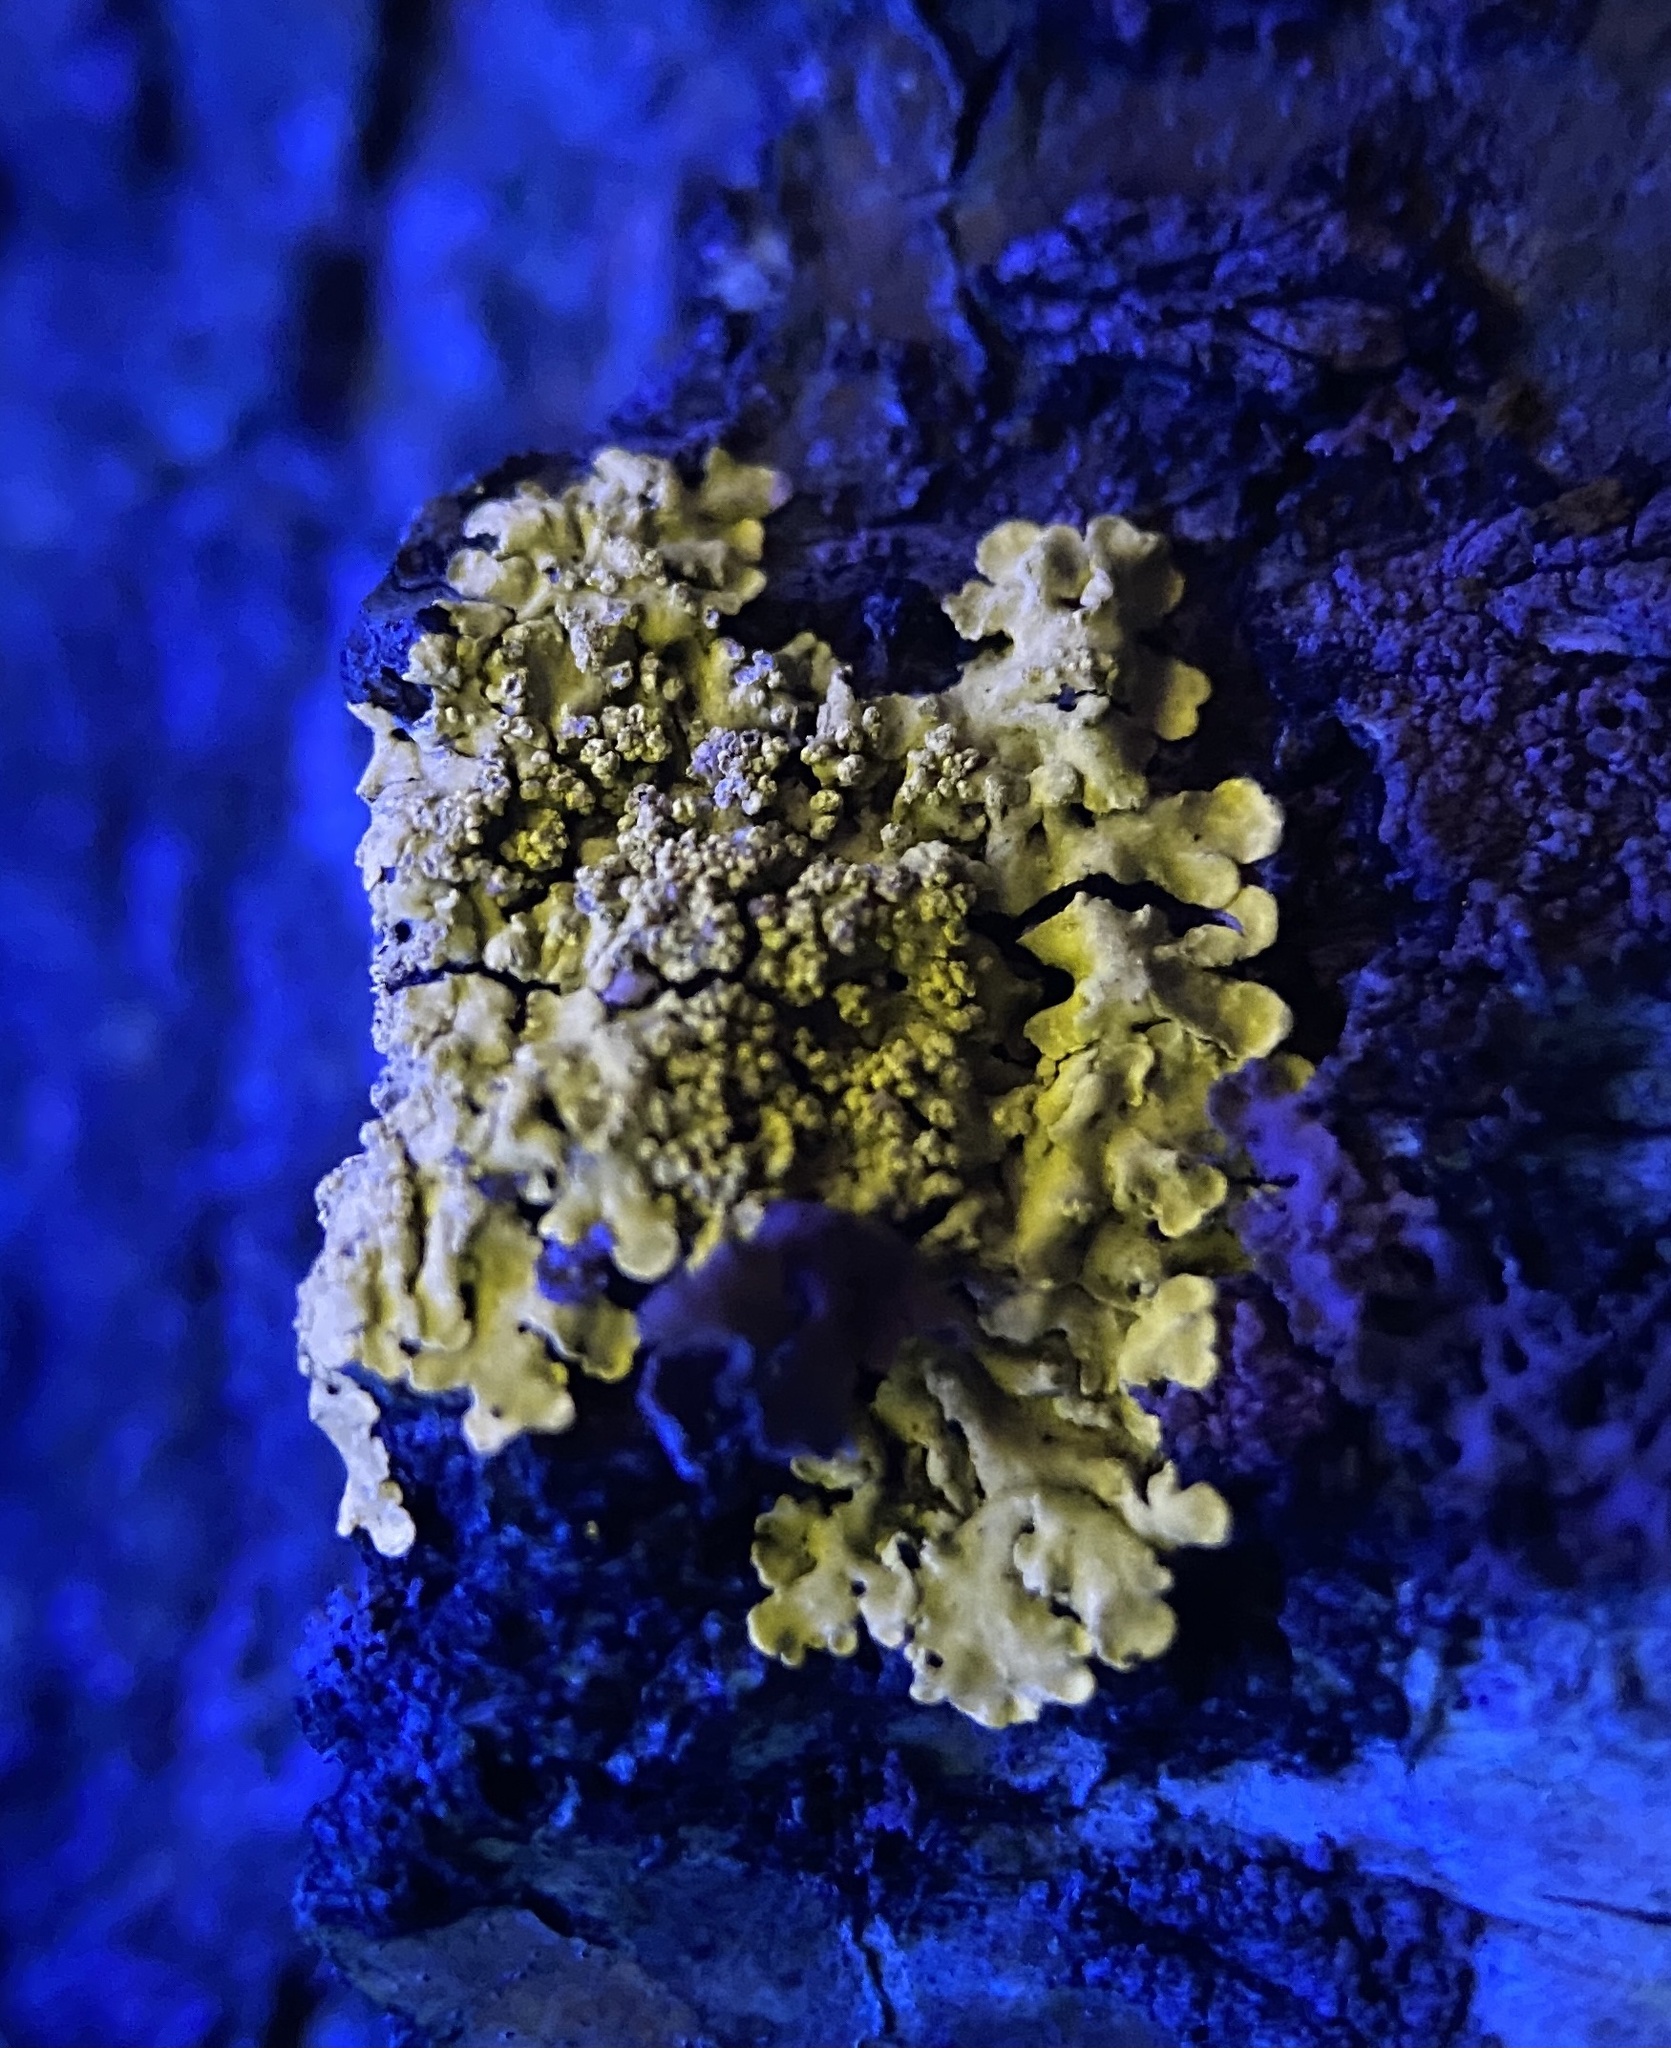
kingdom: Fungi
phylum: Ascomycota
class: Lecanoromycetes
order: Caliciales
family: Caliciaceae
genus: Pyxine
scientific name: Pyxine subcinerea
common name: Mustard lichen
